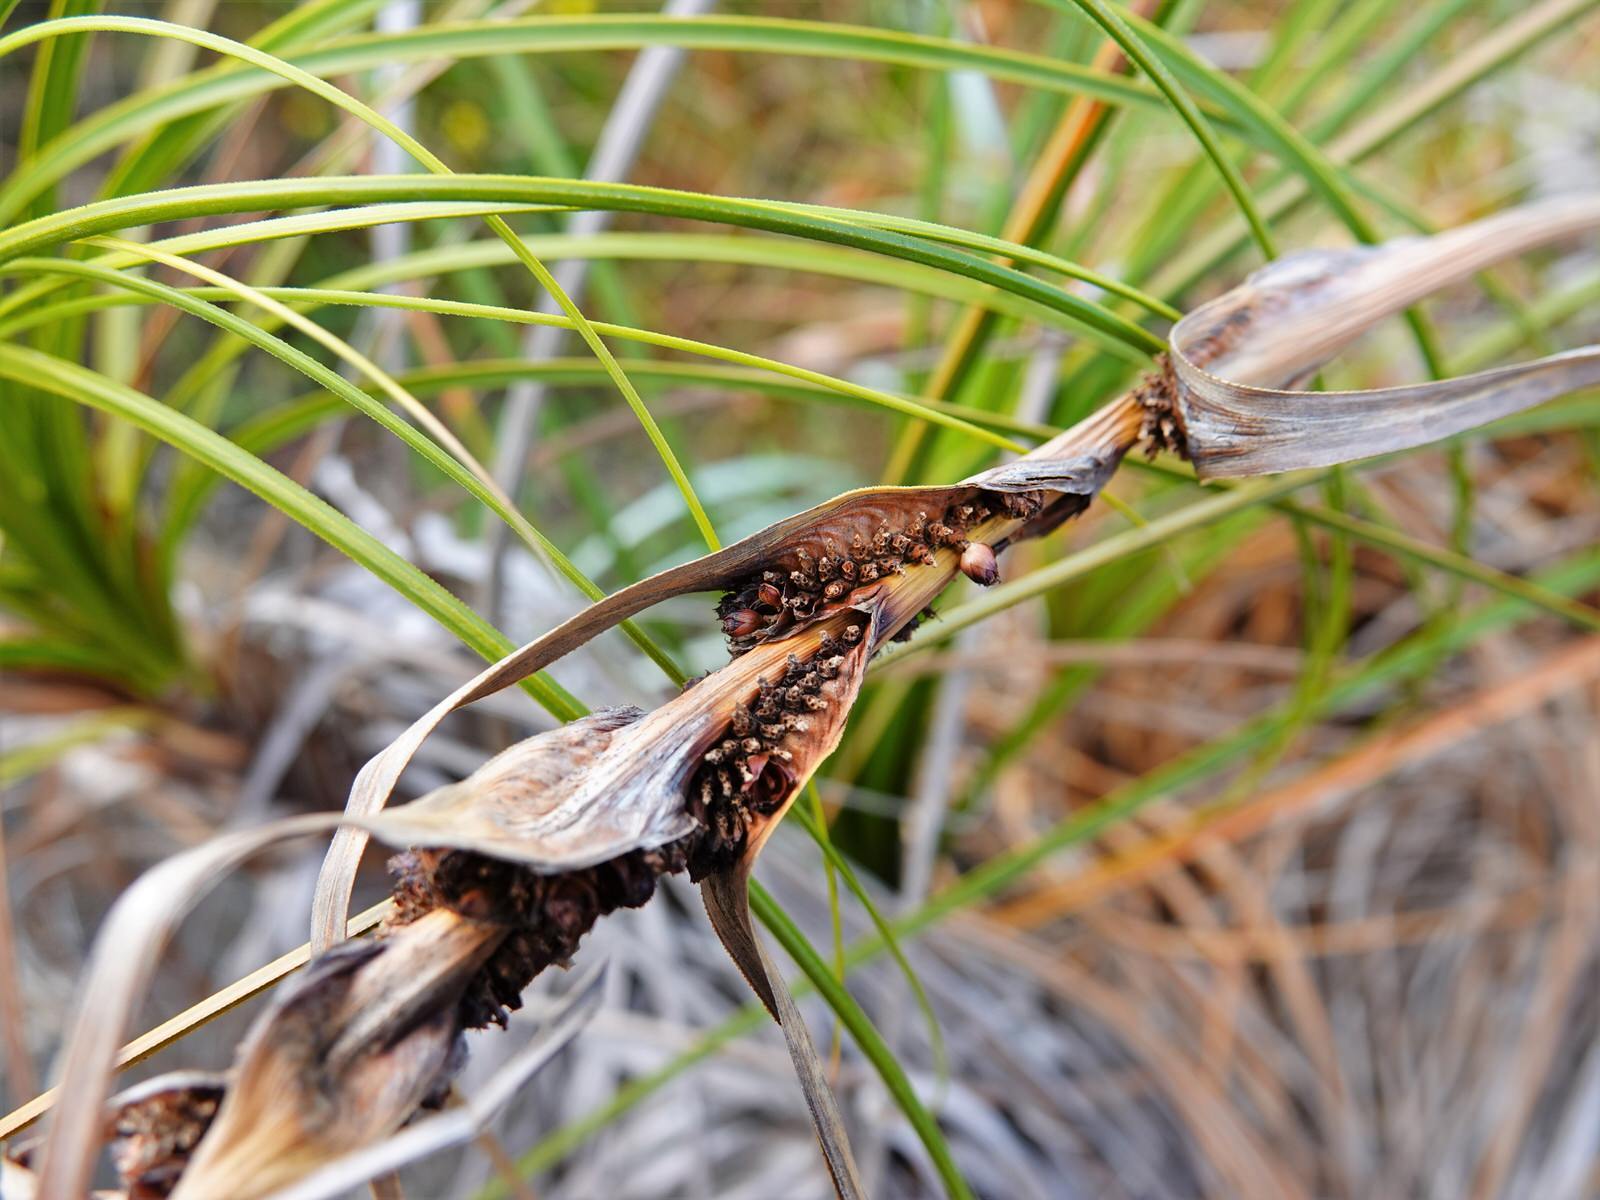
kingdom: Plantae
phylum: Tracheophyta
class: Liliopsida
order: Poales
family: Cyperaceae
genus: Ficinia
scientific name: Ficinia spiralis
